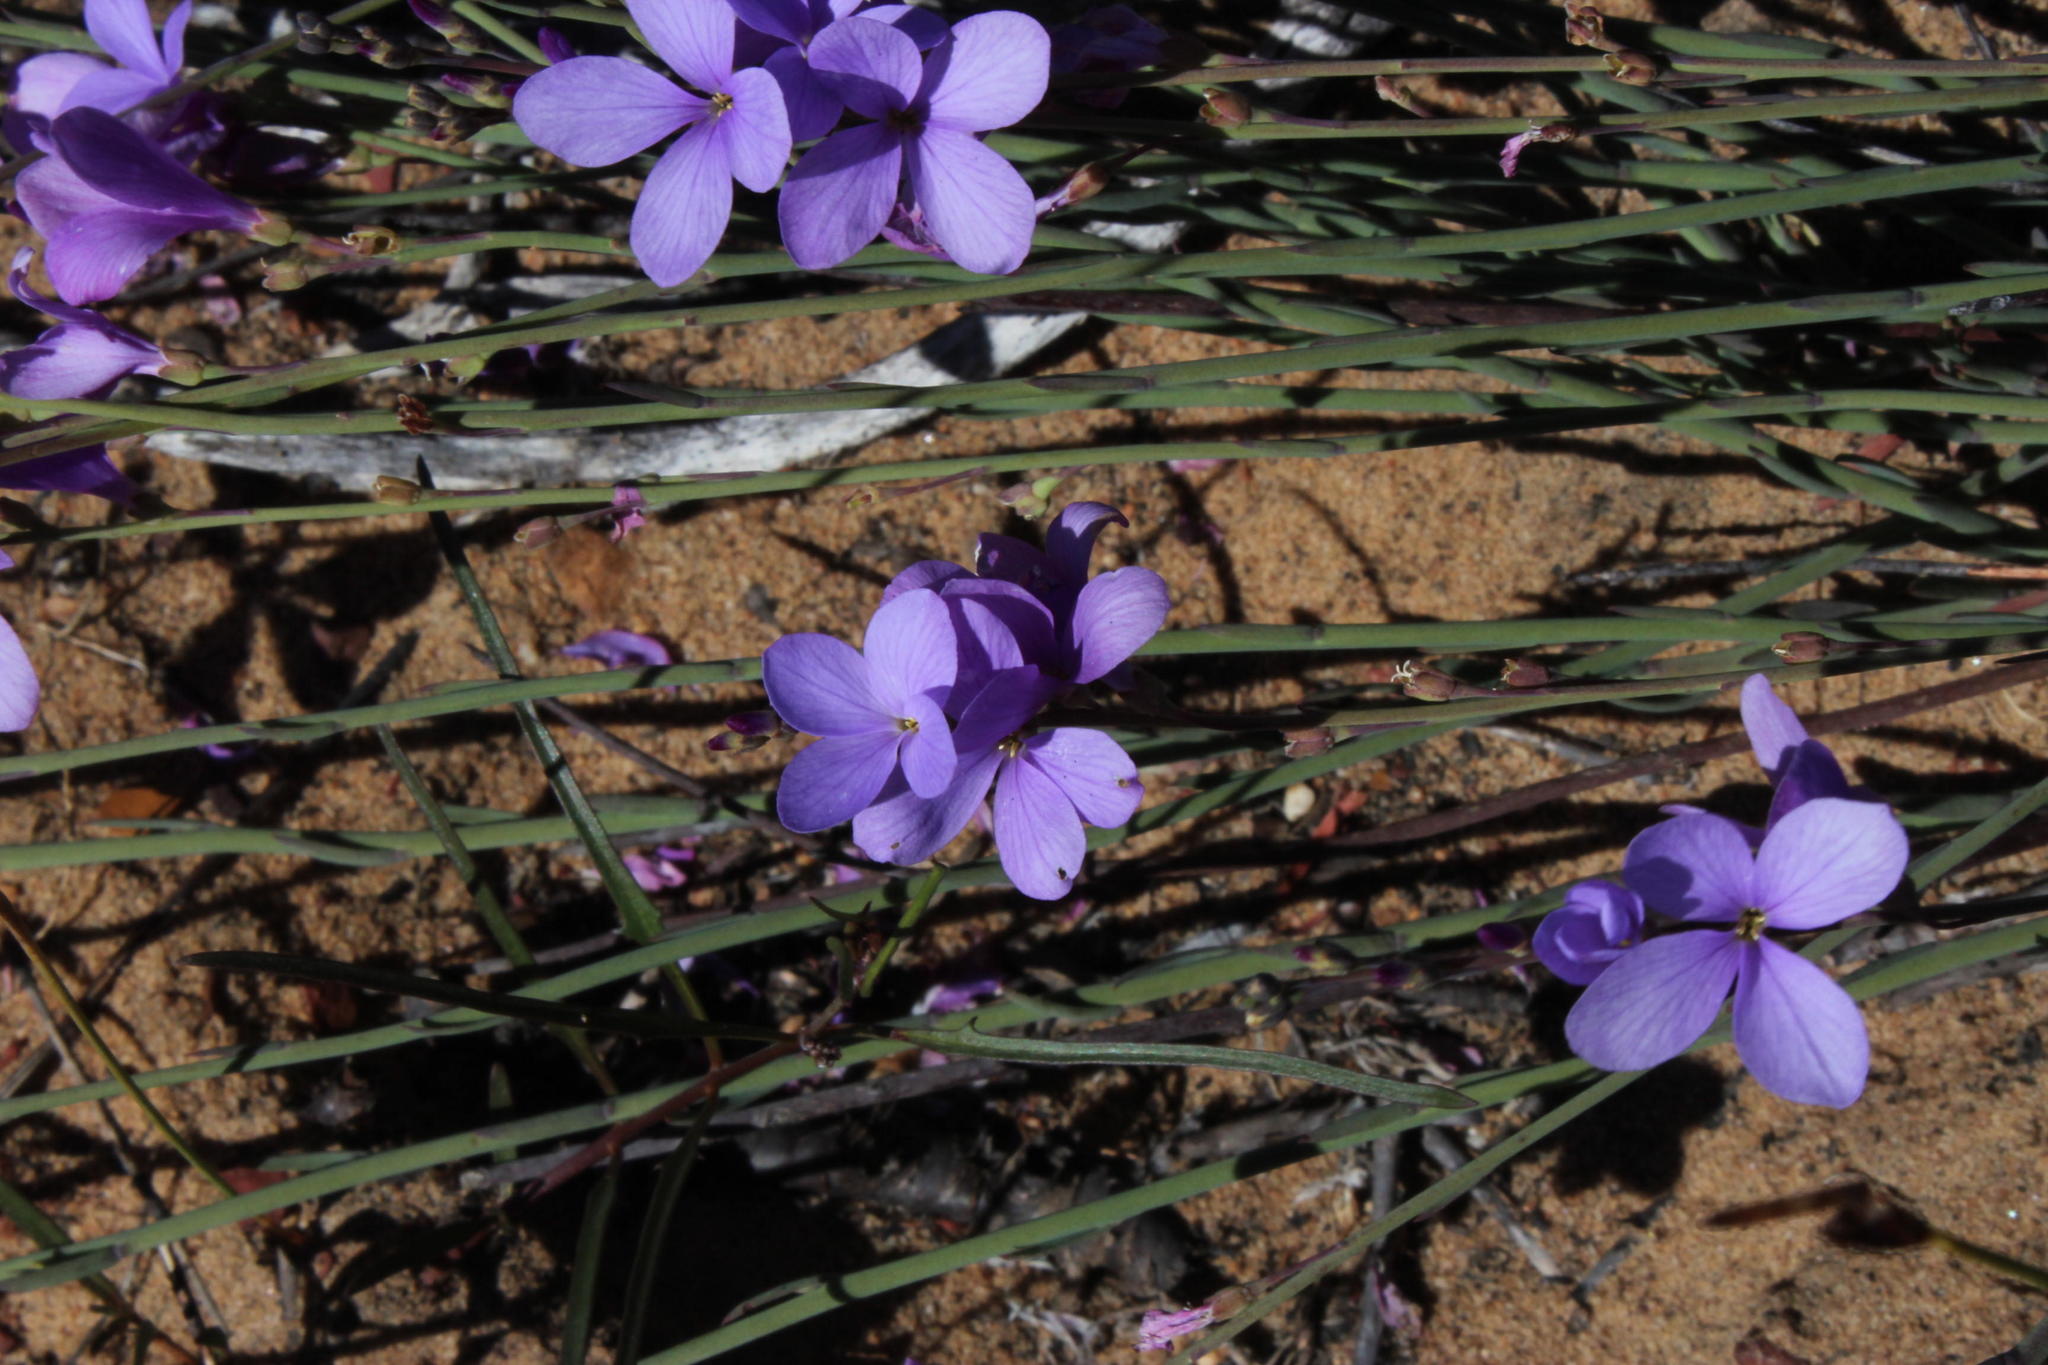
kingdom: Plantae
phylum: Tracheophyta
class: Magnoliopsida
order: Brassicales
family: Brassicaceae
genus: Heliophila
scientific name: Heliophila juncea
